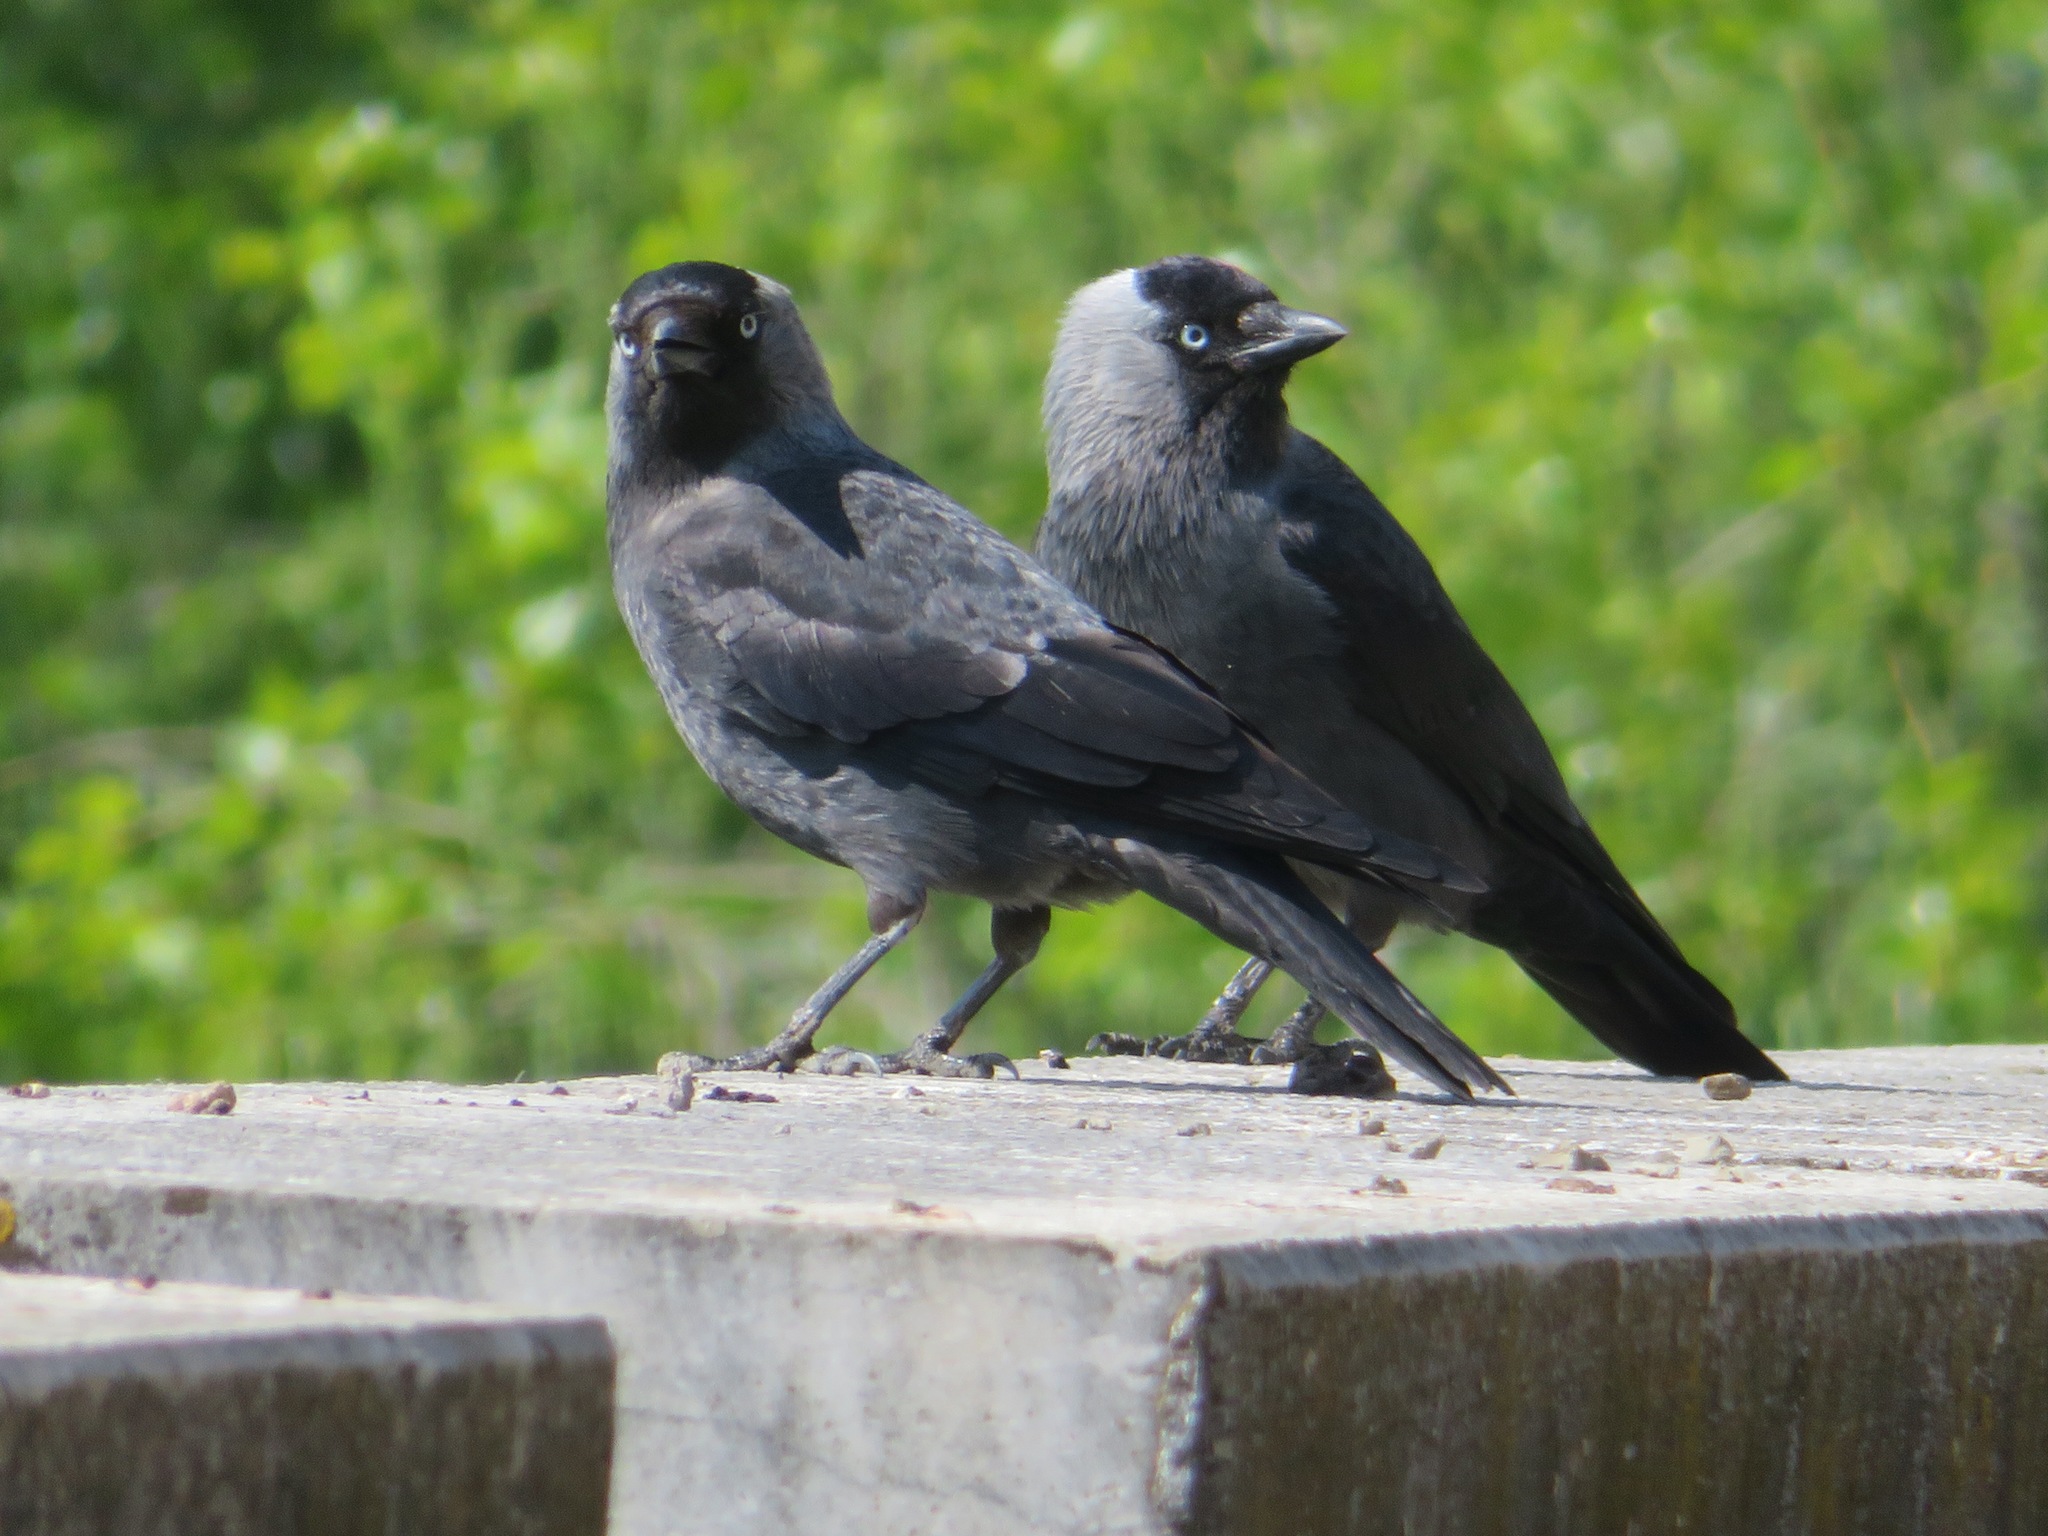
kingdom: Animalia
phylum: Chordata
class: Aves
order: Passeriformes
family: Corvidae
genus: Coloeus
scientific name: Coloeus monedula
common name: Western jackdaw
